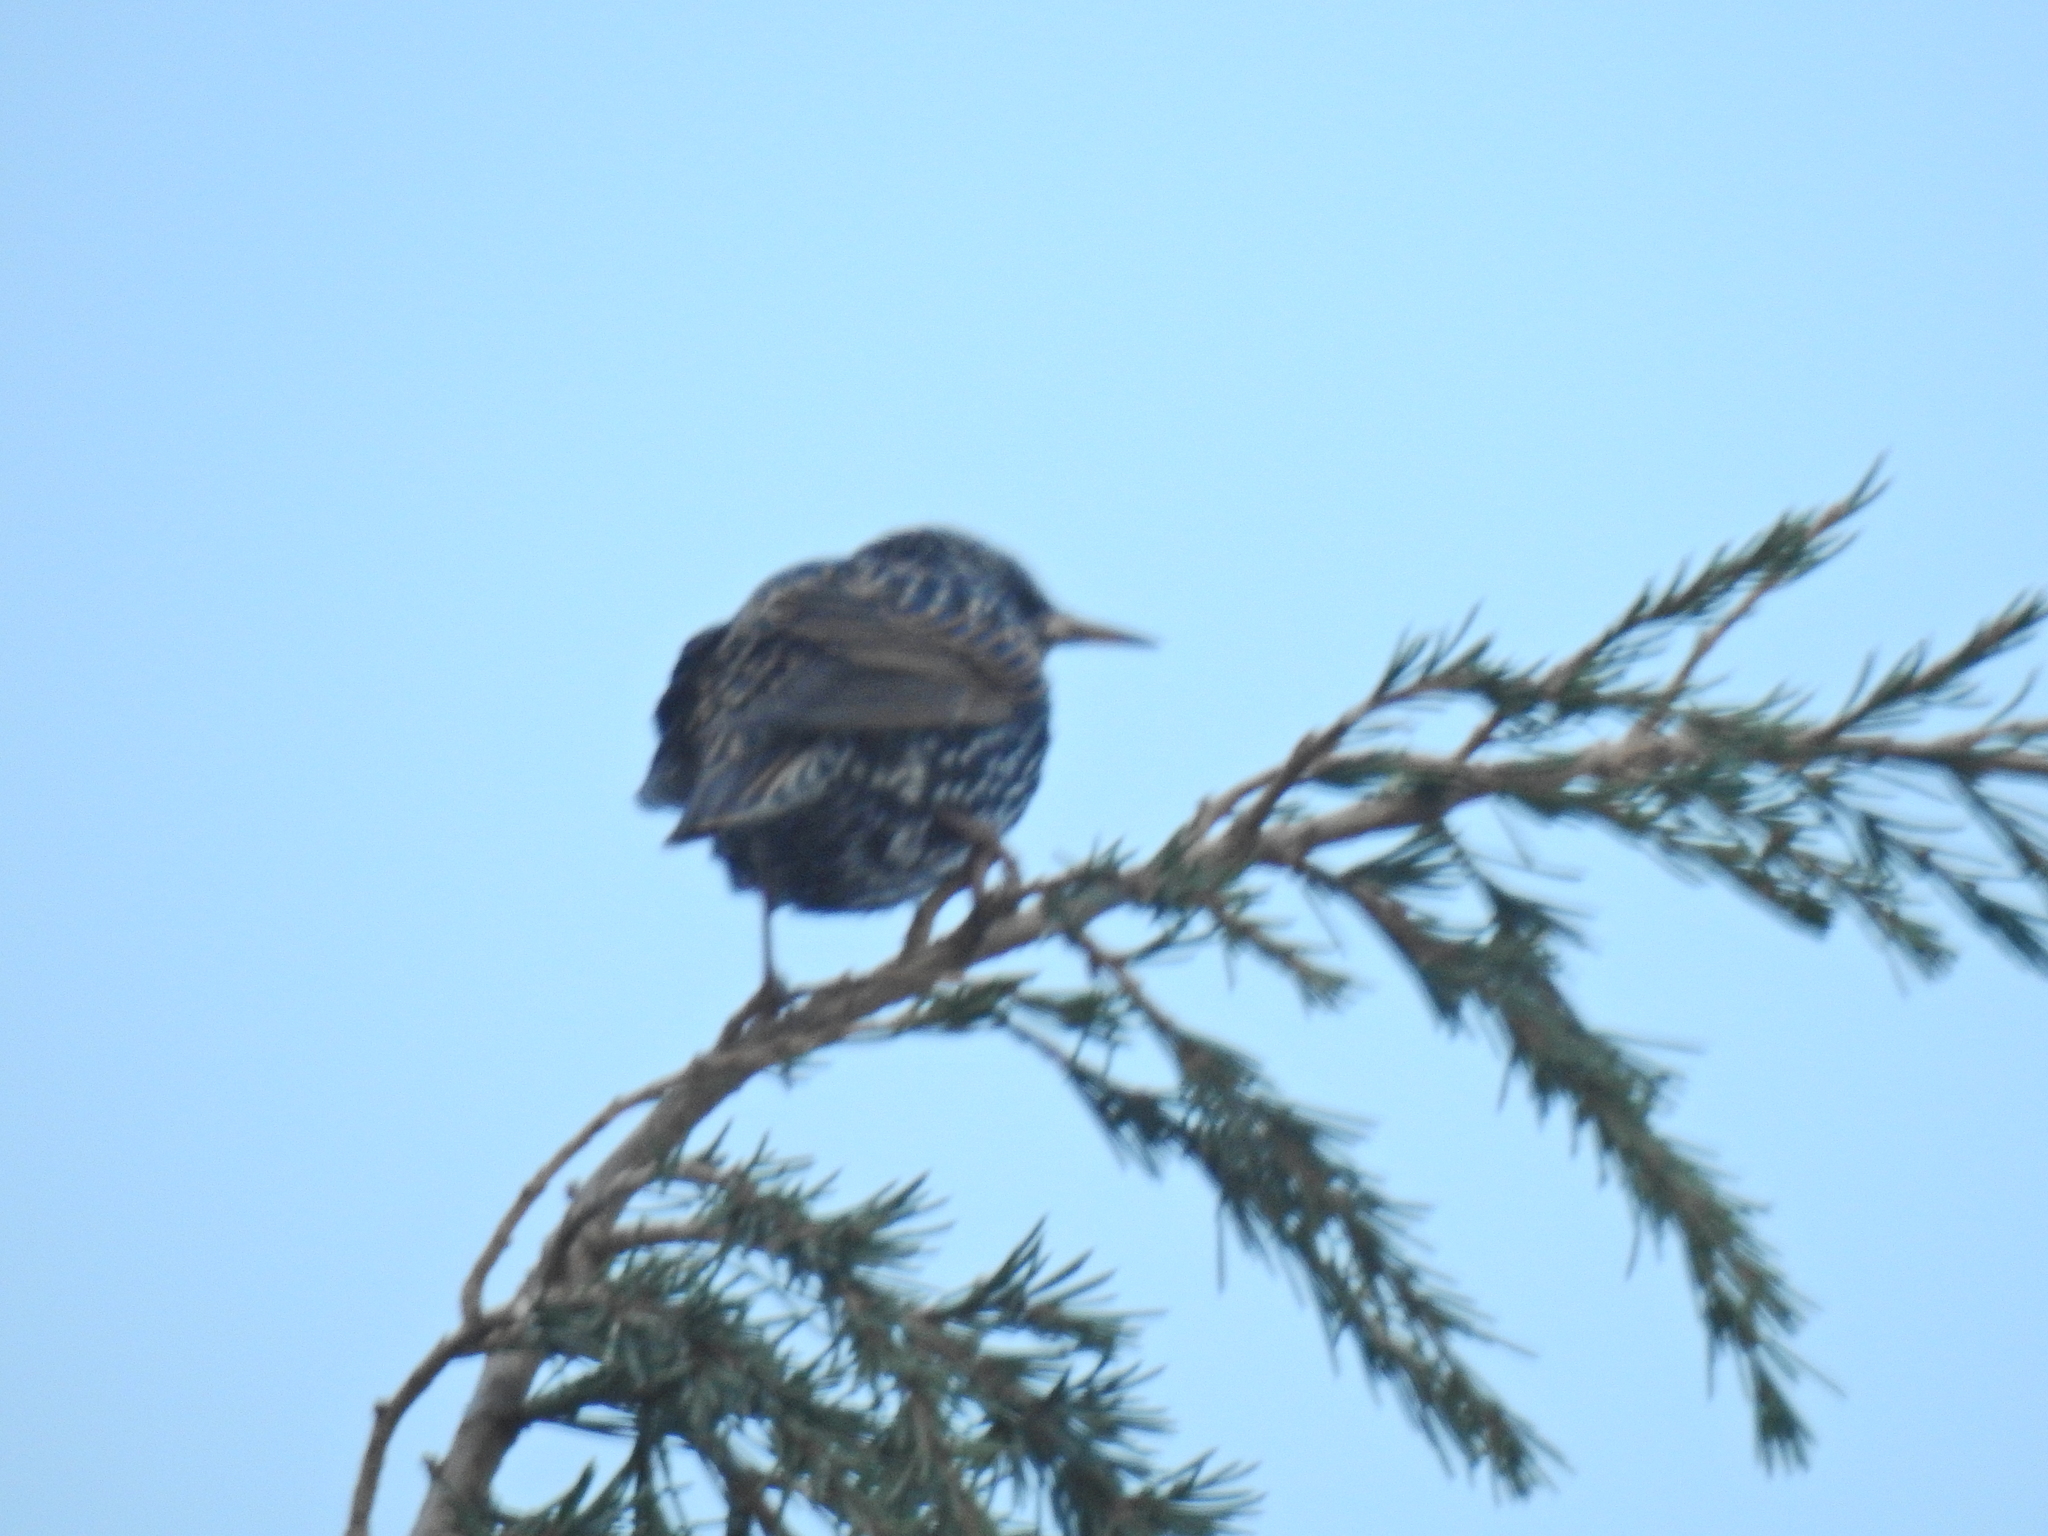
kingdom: Animalia
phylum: Chordata
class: Aves
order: Passeriformes
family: Sturnidae
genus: Sturnus
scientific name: Sturnus vulgaris
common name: Common starling
